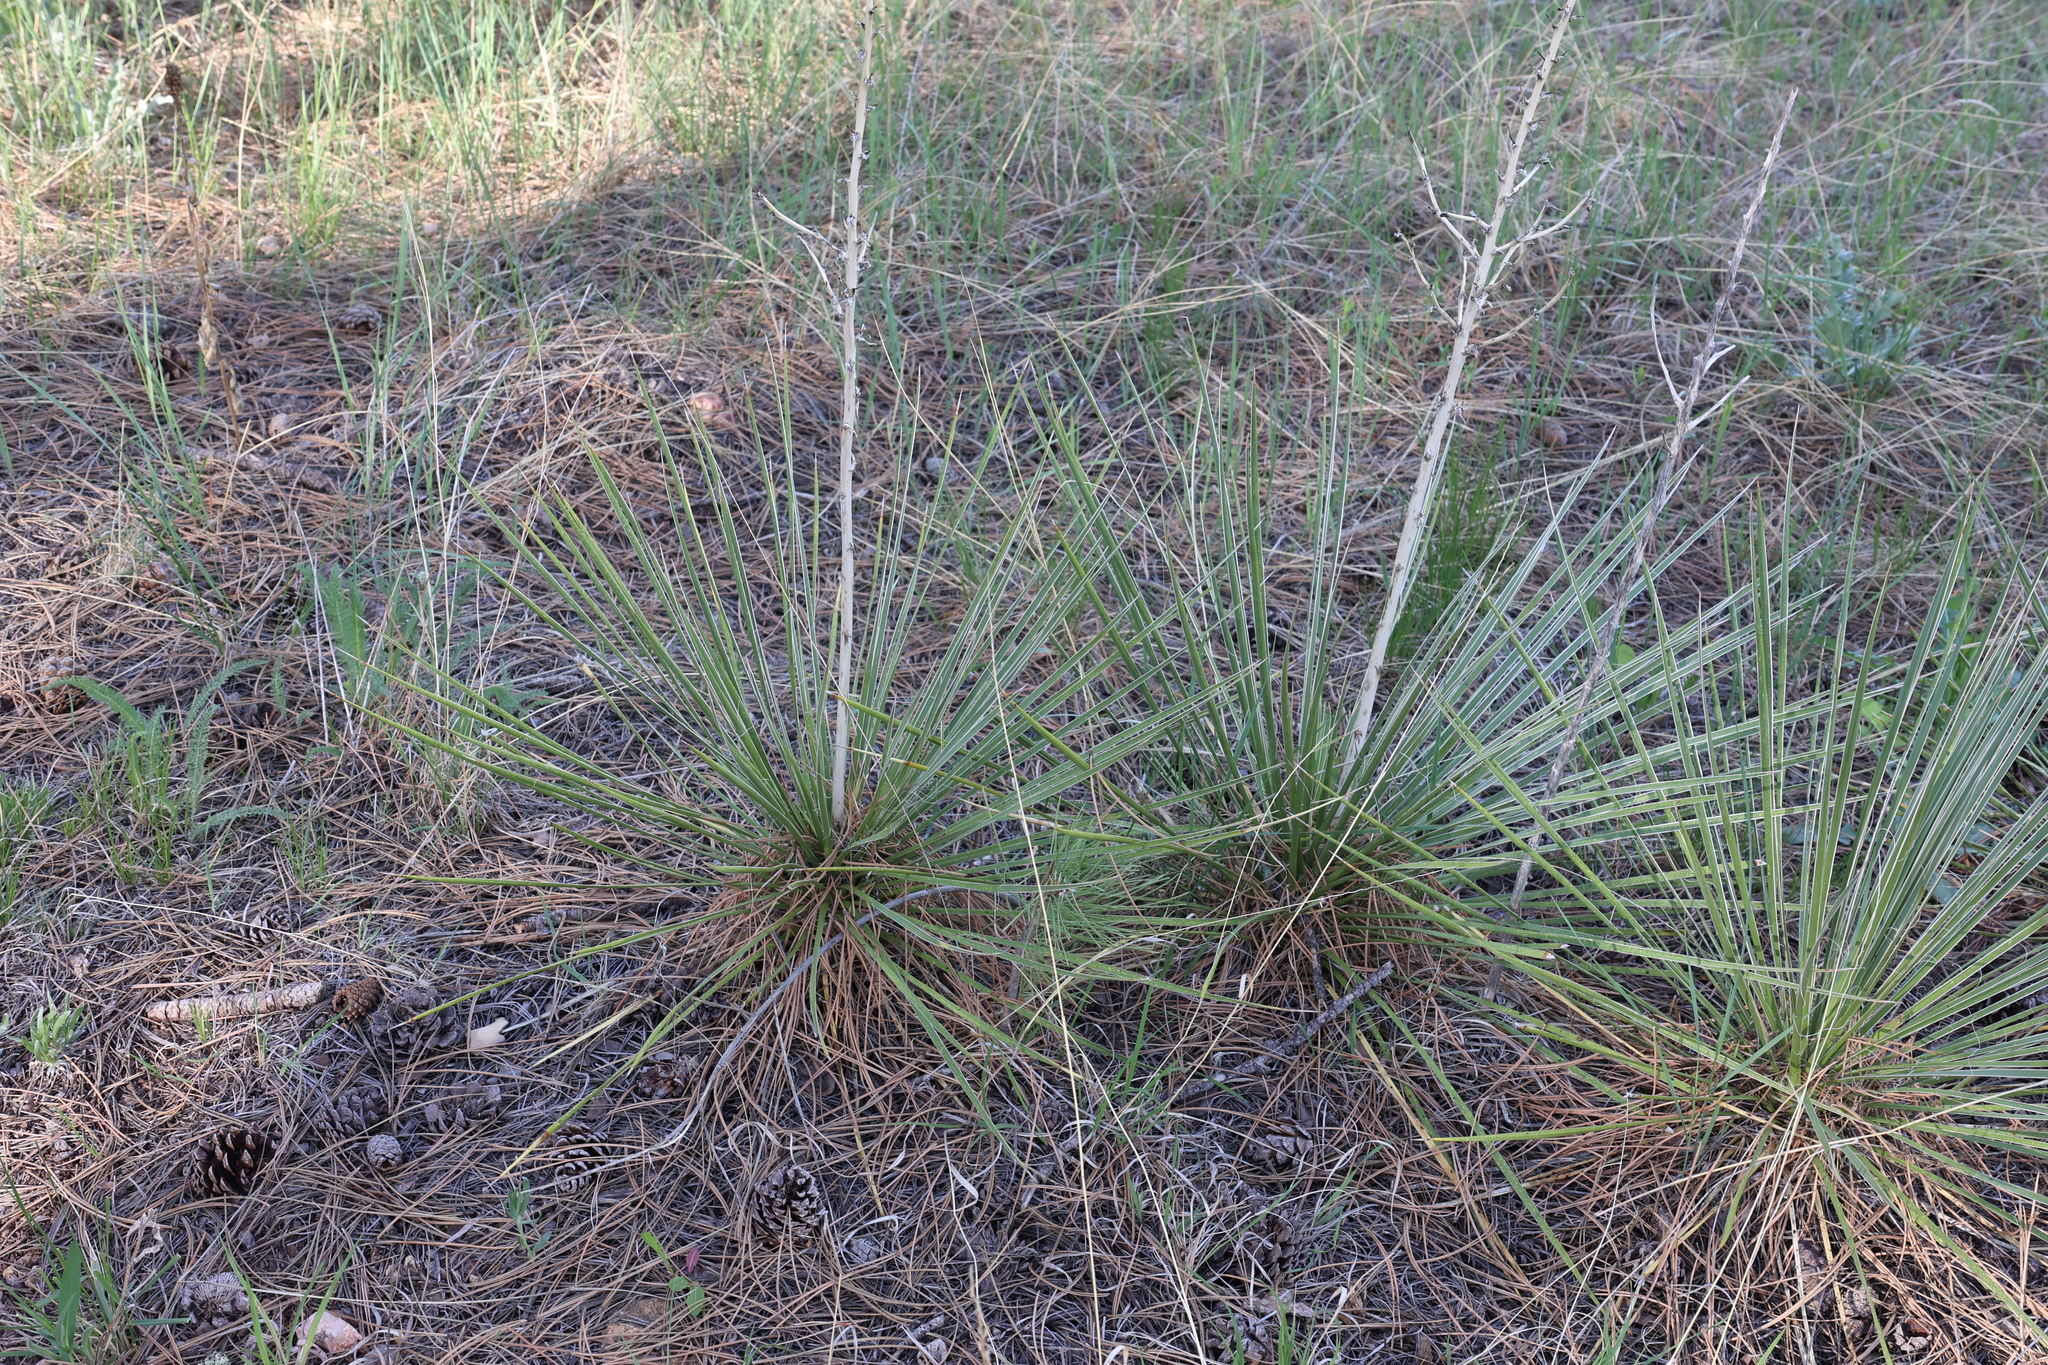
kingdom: Plantae
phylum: Tracheophyta
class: Liliopsida
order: Asparagales
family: Asparagaceae
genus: Yucca
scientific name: Yucca glauca
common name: Great plains yucca
